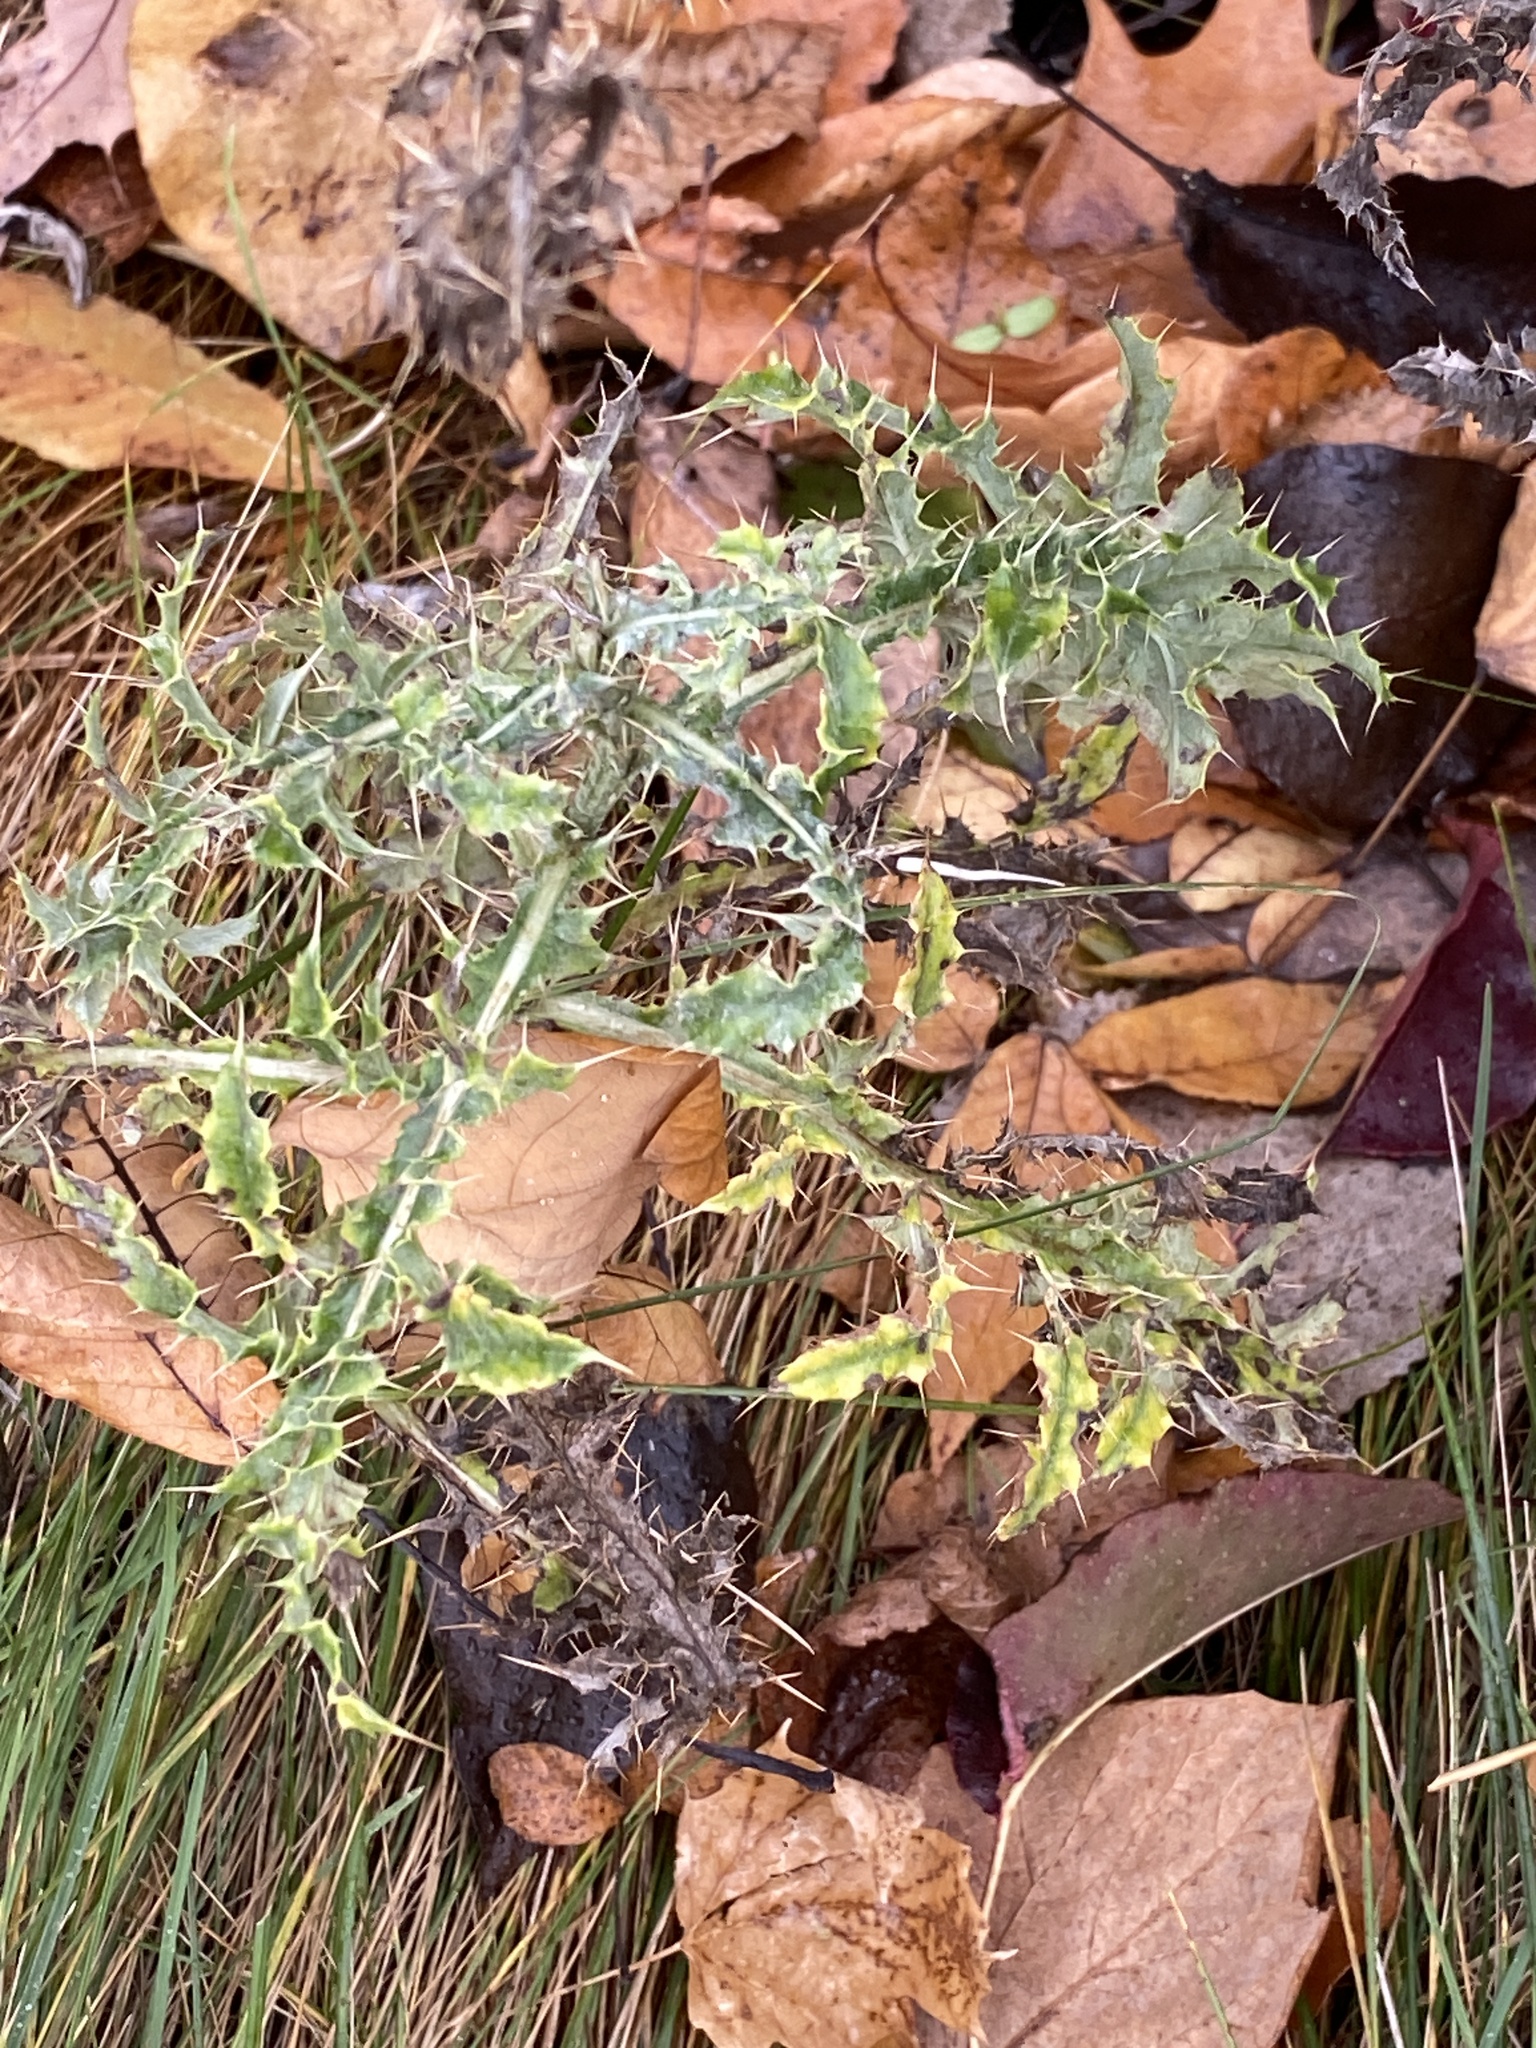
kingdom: Plantae
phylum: Tracheophyta
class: Magnoliopsida
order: Asterales
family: Asteraceae
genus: Cirsium
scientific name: Cirsium arvense
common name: Creeping thistle
